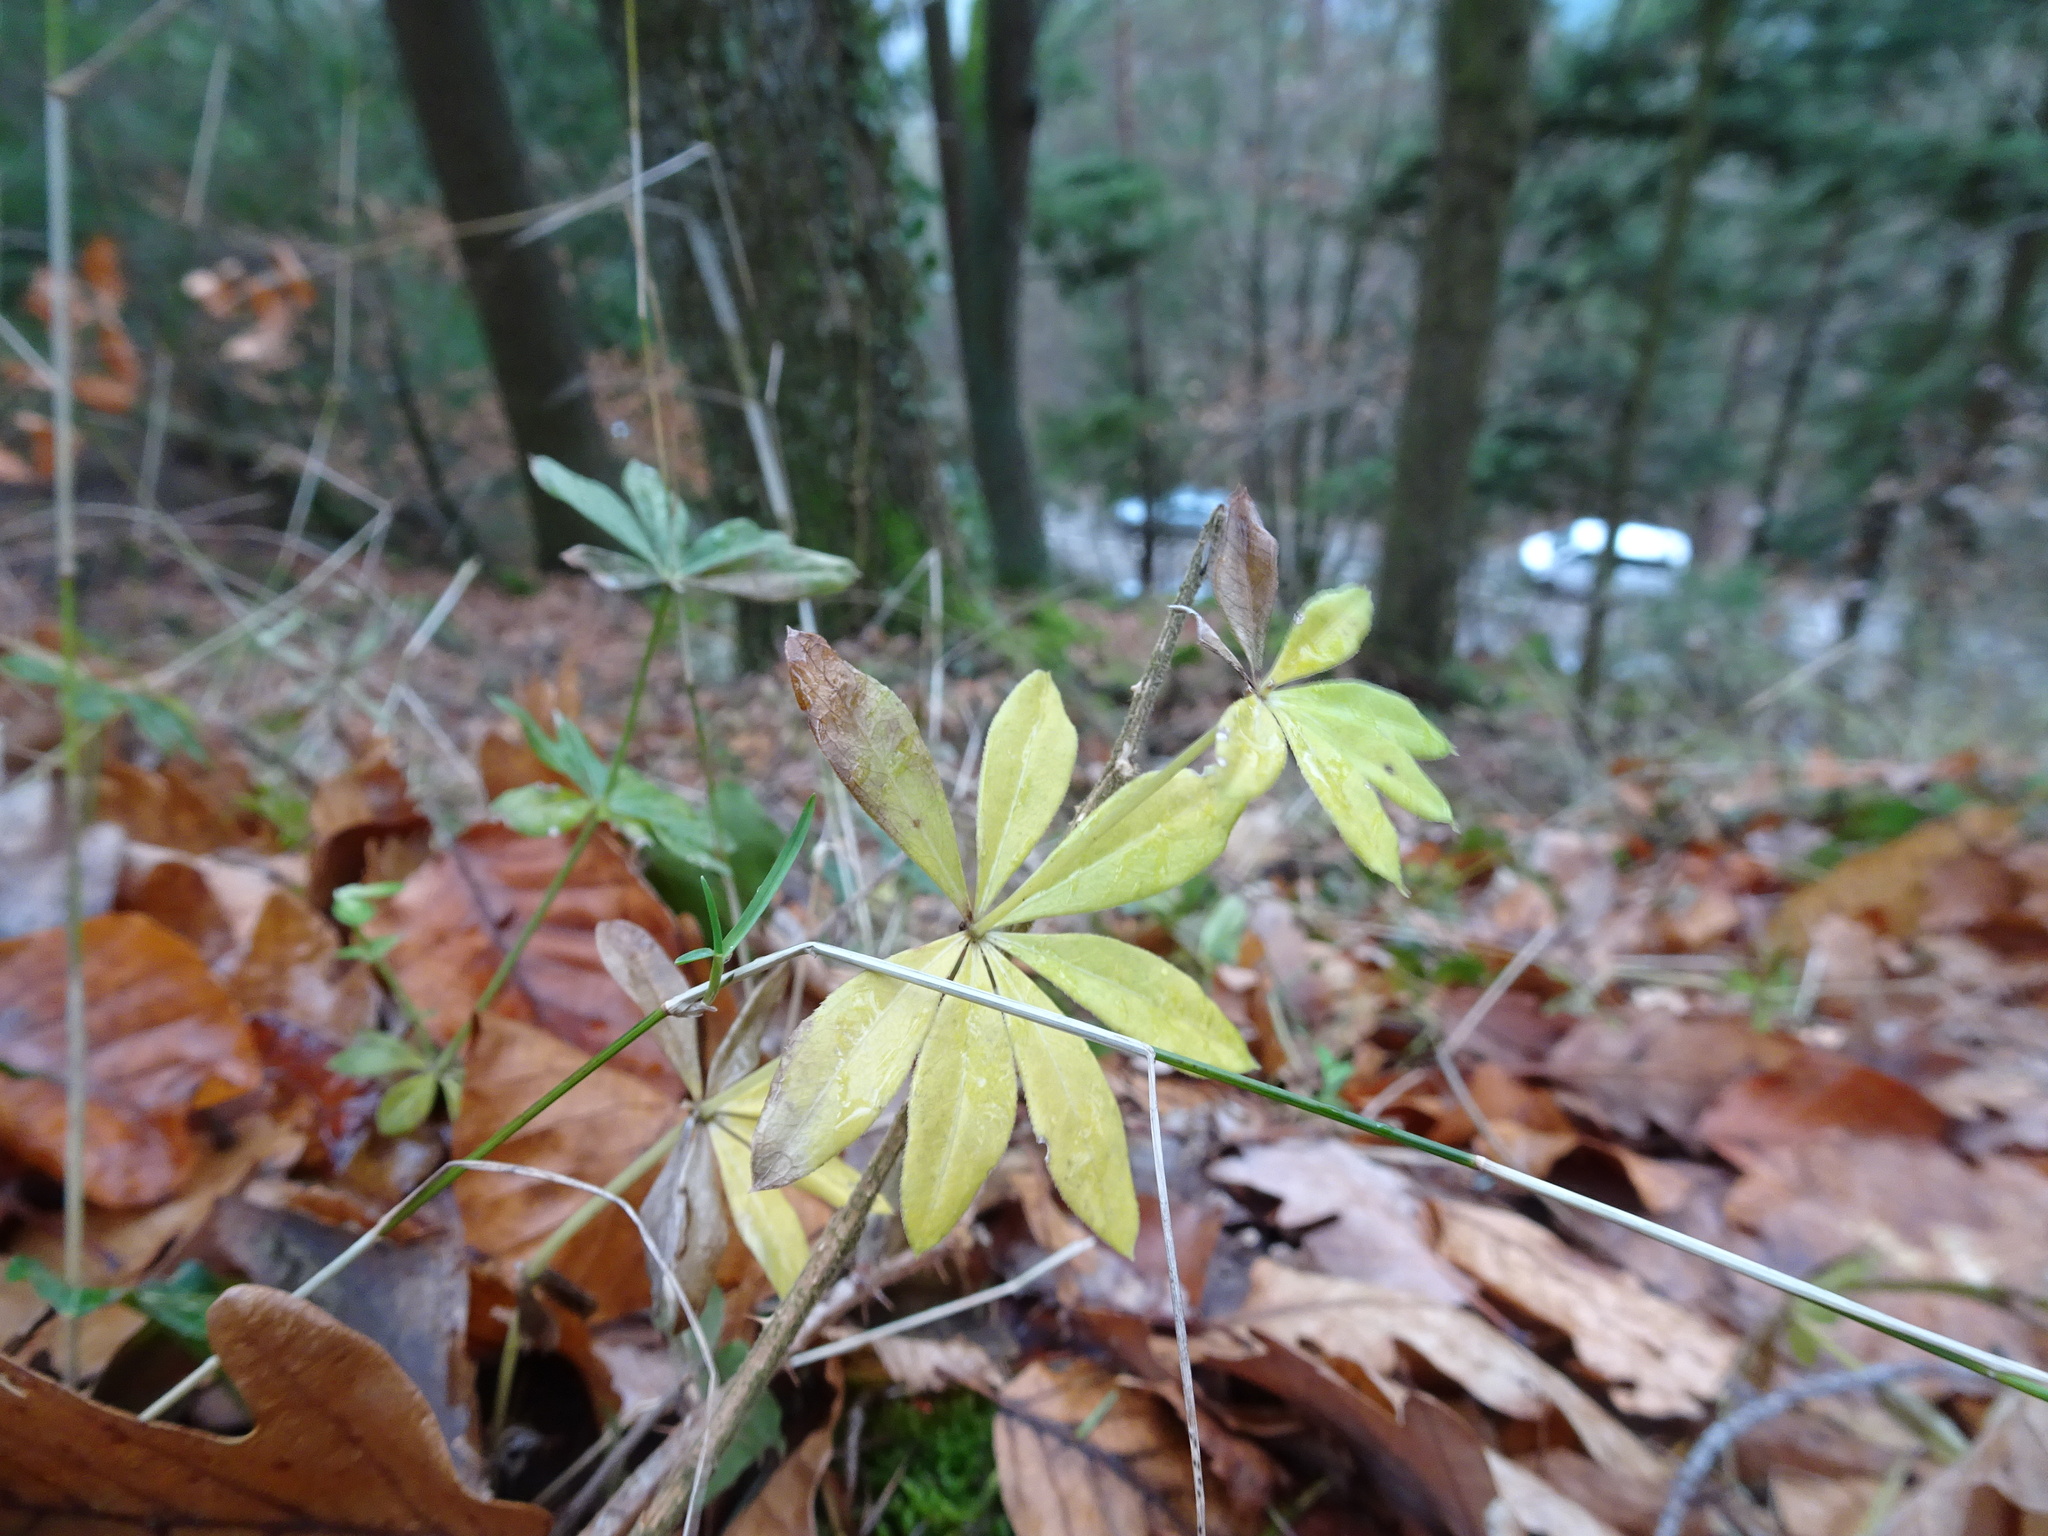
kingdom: Plantae
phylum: Tracheophyta
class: Magnoliopsida
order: Gentianales
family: Rubiaceae
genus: Galium
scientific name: Galium odoratum
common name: Sweet woodruff
